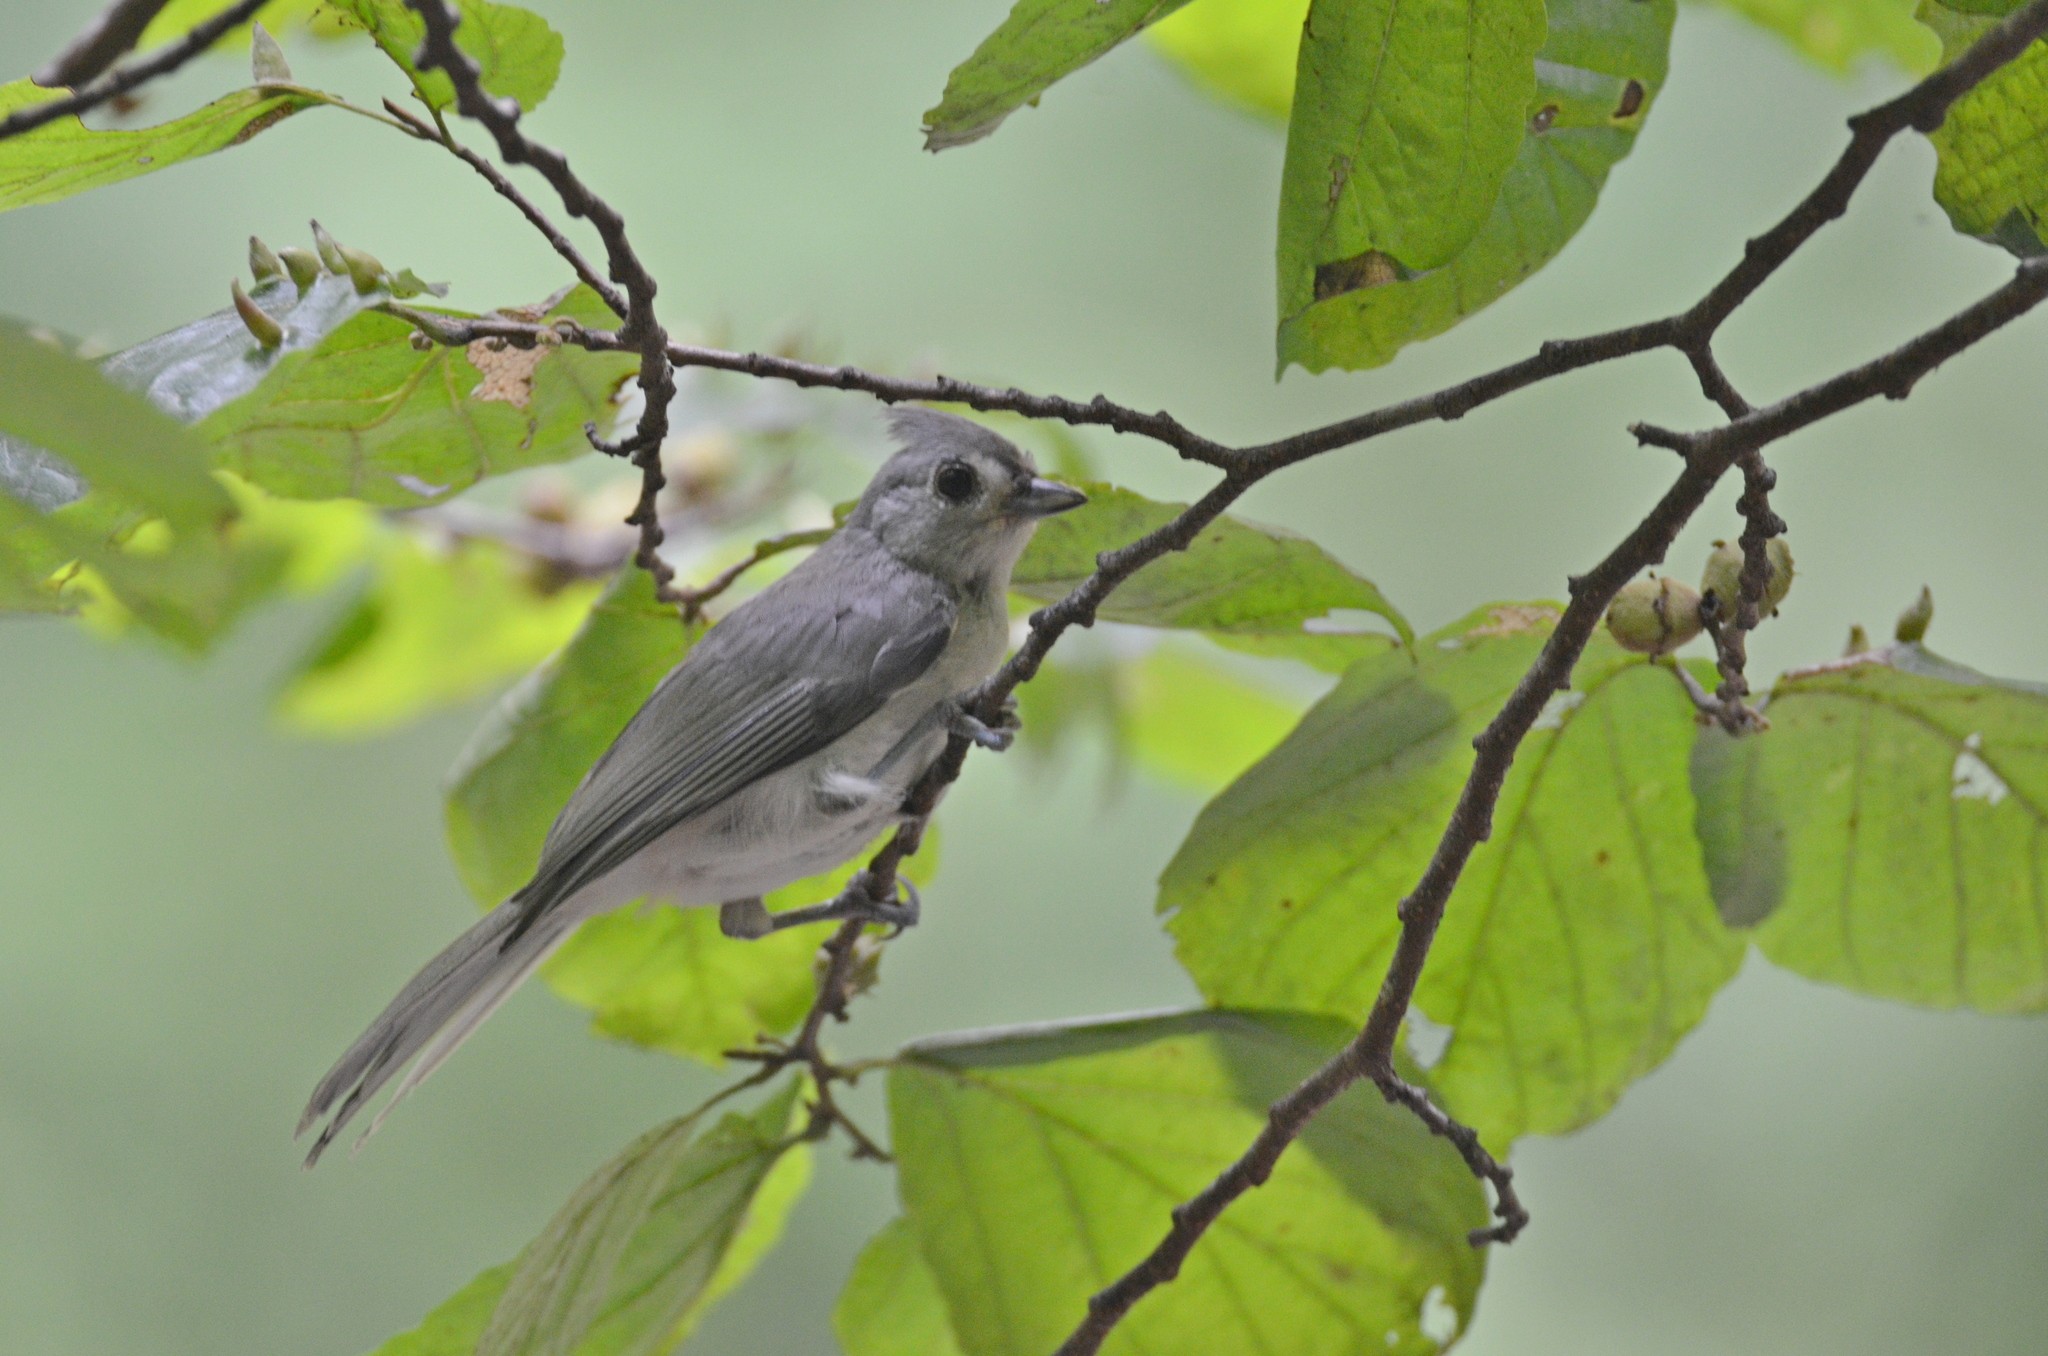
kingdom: Animalia
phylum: Chordata
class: Aves
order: Passeriformes
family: Paridae
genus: Baeolophus
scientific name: Baeolophus bicolor
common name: Tufted titmouse
